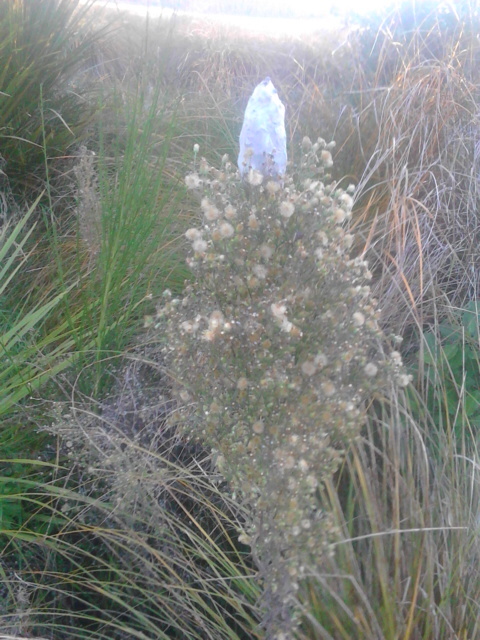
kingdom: Animalia
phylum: Arthropoda
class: Arachnida
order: Araneae
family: Pisauridae
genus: Dolomedes
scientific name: Dolomedes minor
